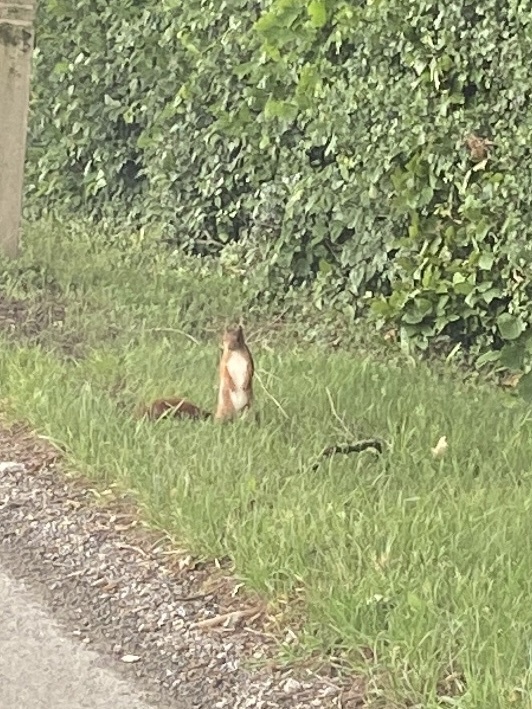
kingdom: Animalia
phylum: Chordata
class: Mammalia
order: Rodentia
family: Sciuridae
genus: Sciurus
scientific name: Sciurus vulgaris
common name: Eurasian red squirrel
